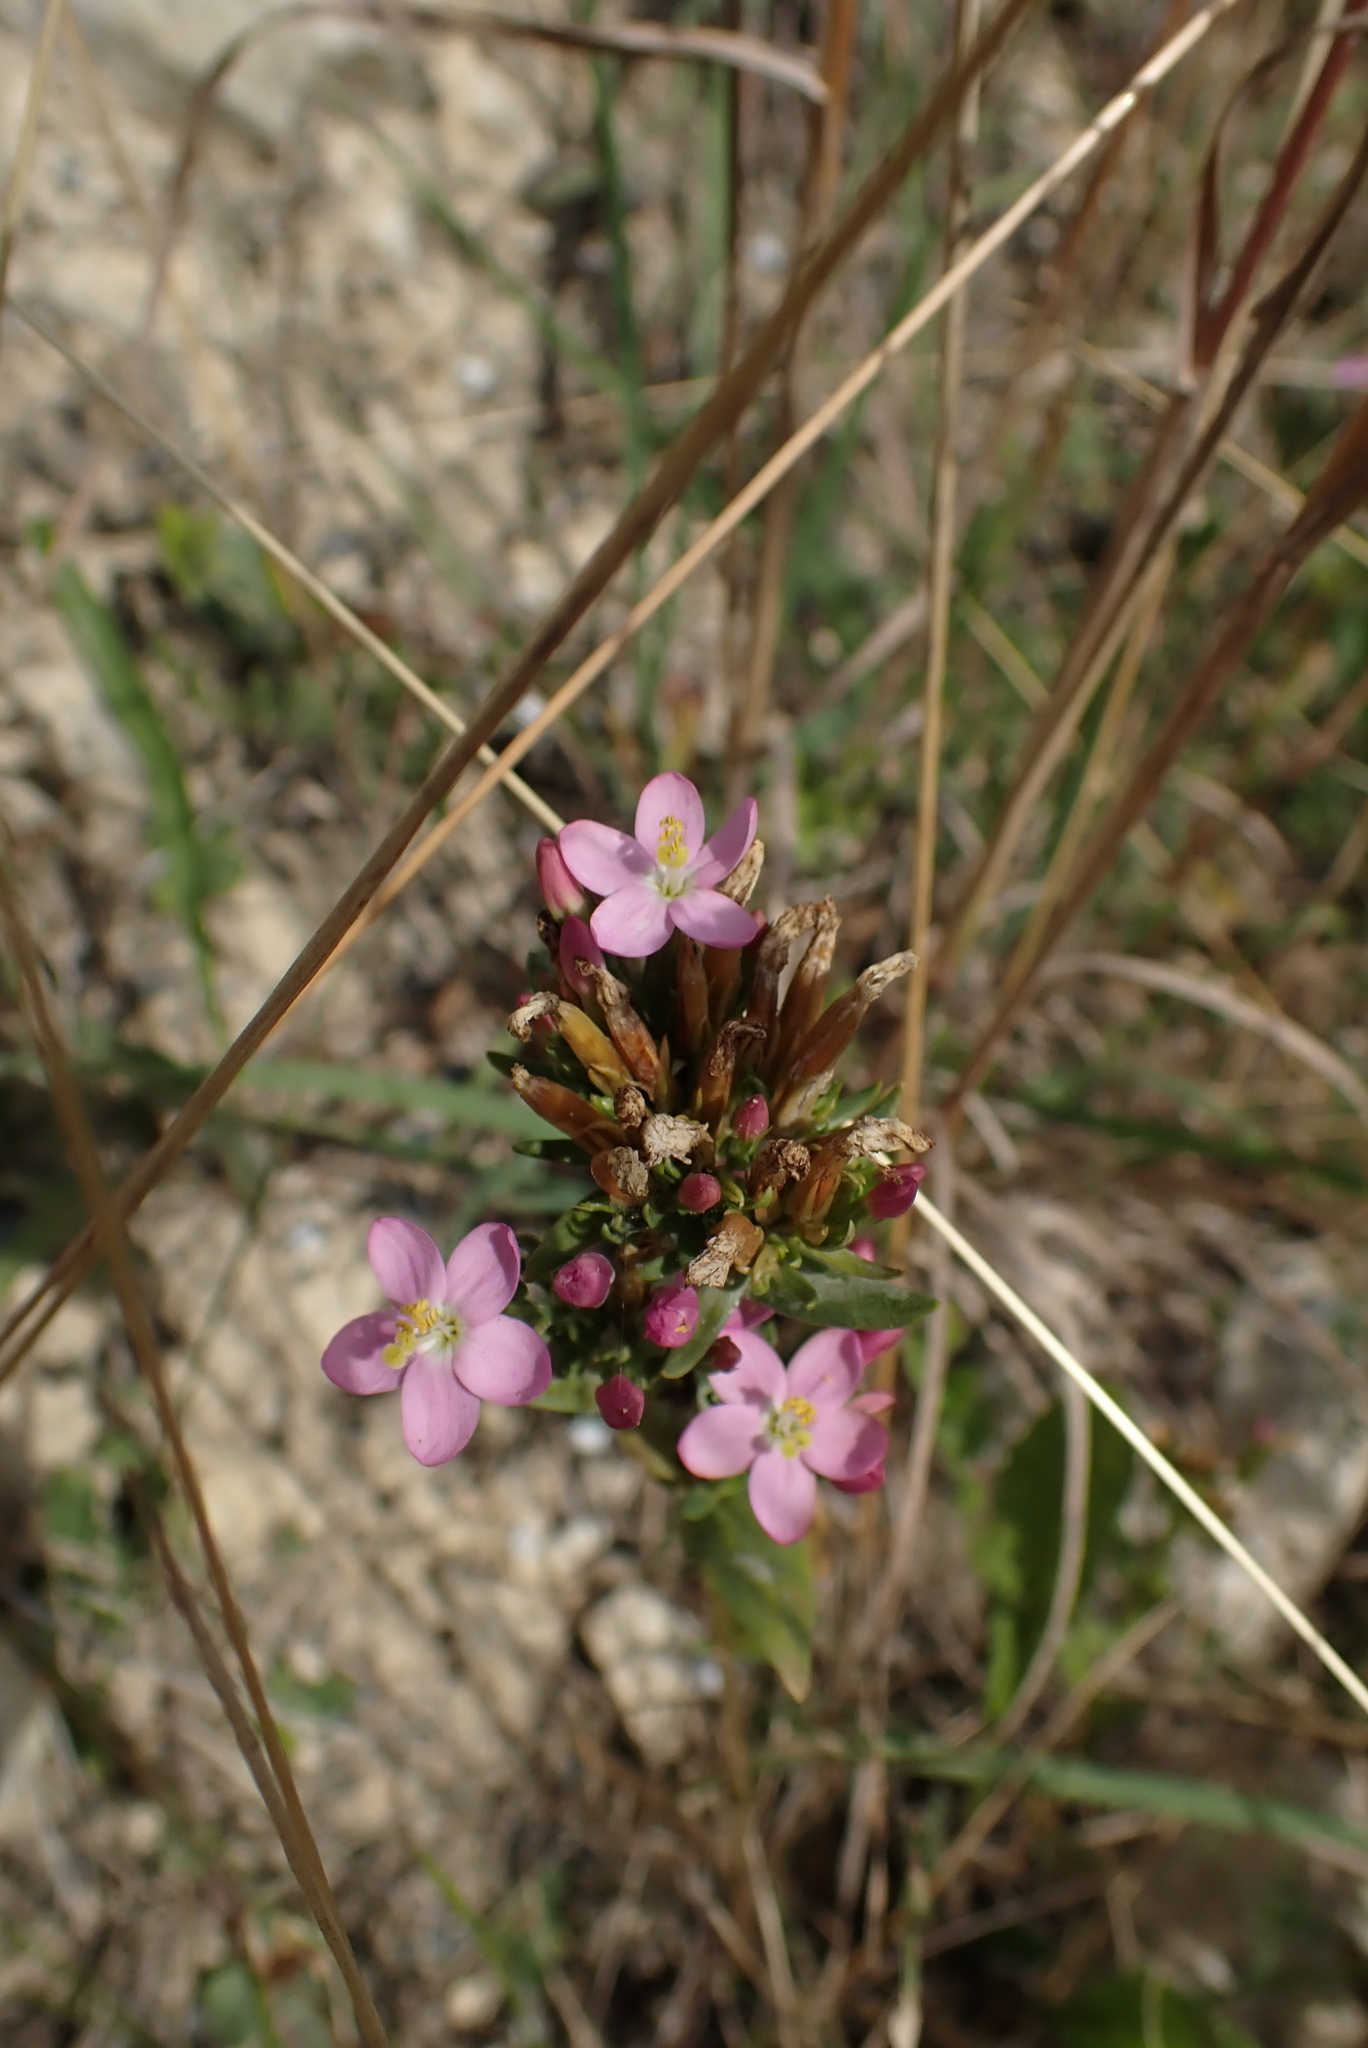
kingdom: Plantae
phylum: Tracheophyta
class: Magnoliopsida
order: Gentianales
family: Gentianaceae
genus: Centaurium
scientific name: Centaurium erythraea
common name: Common centaury
